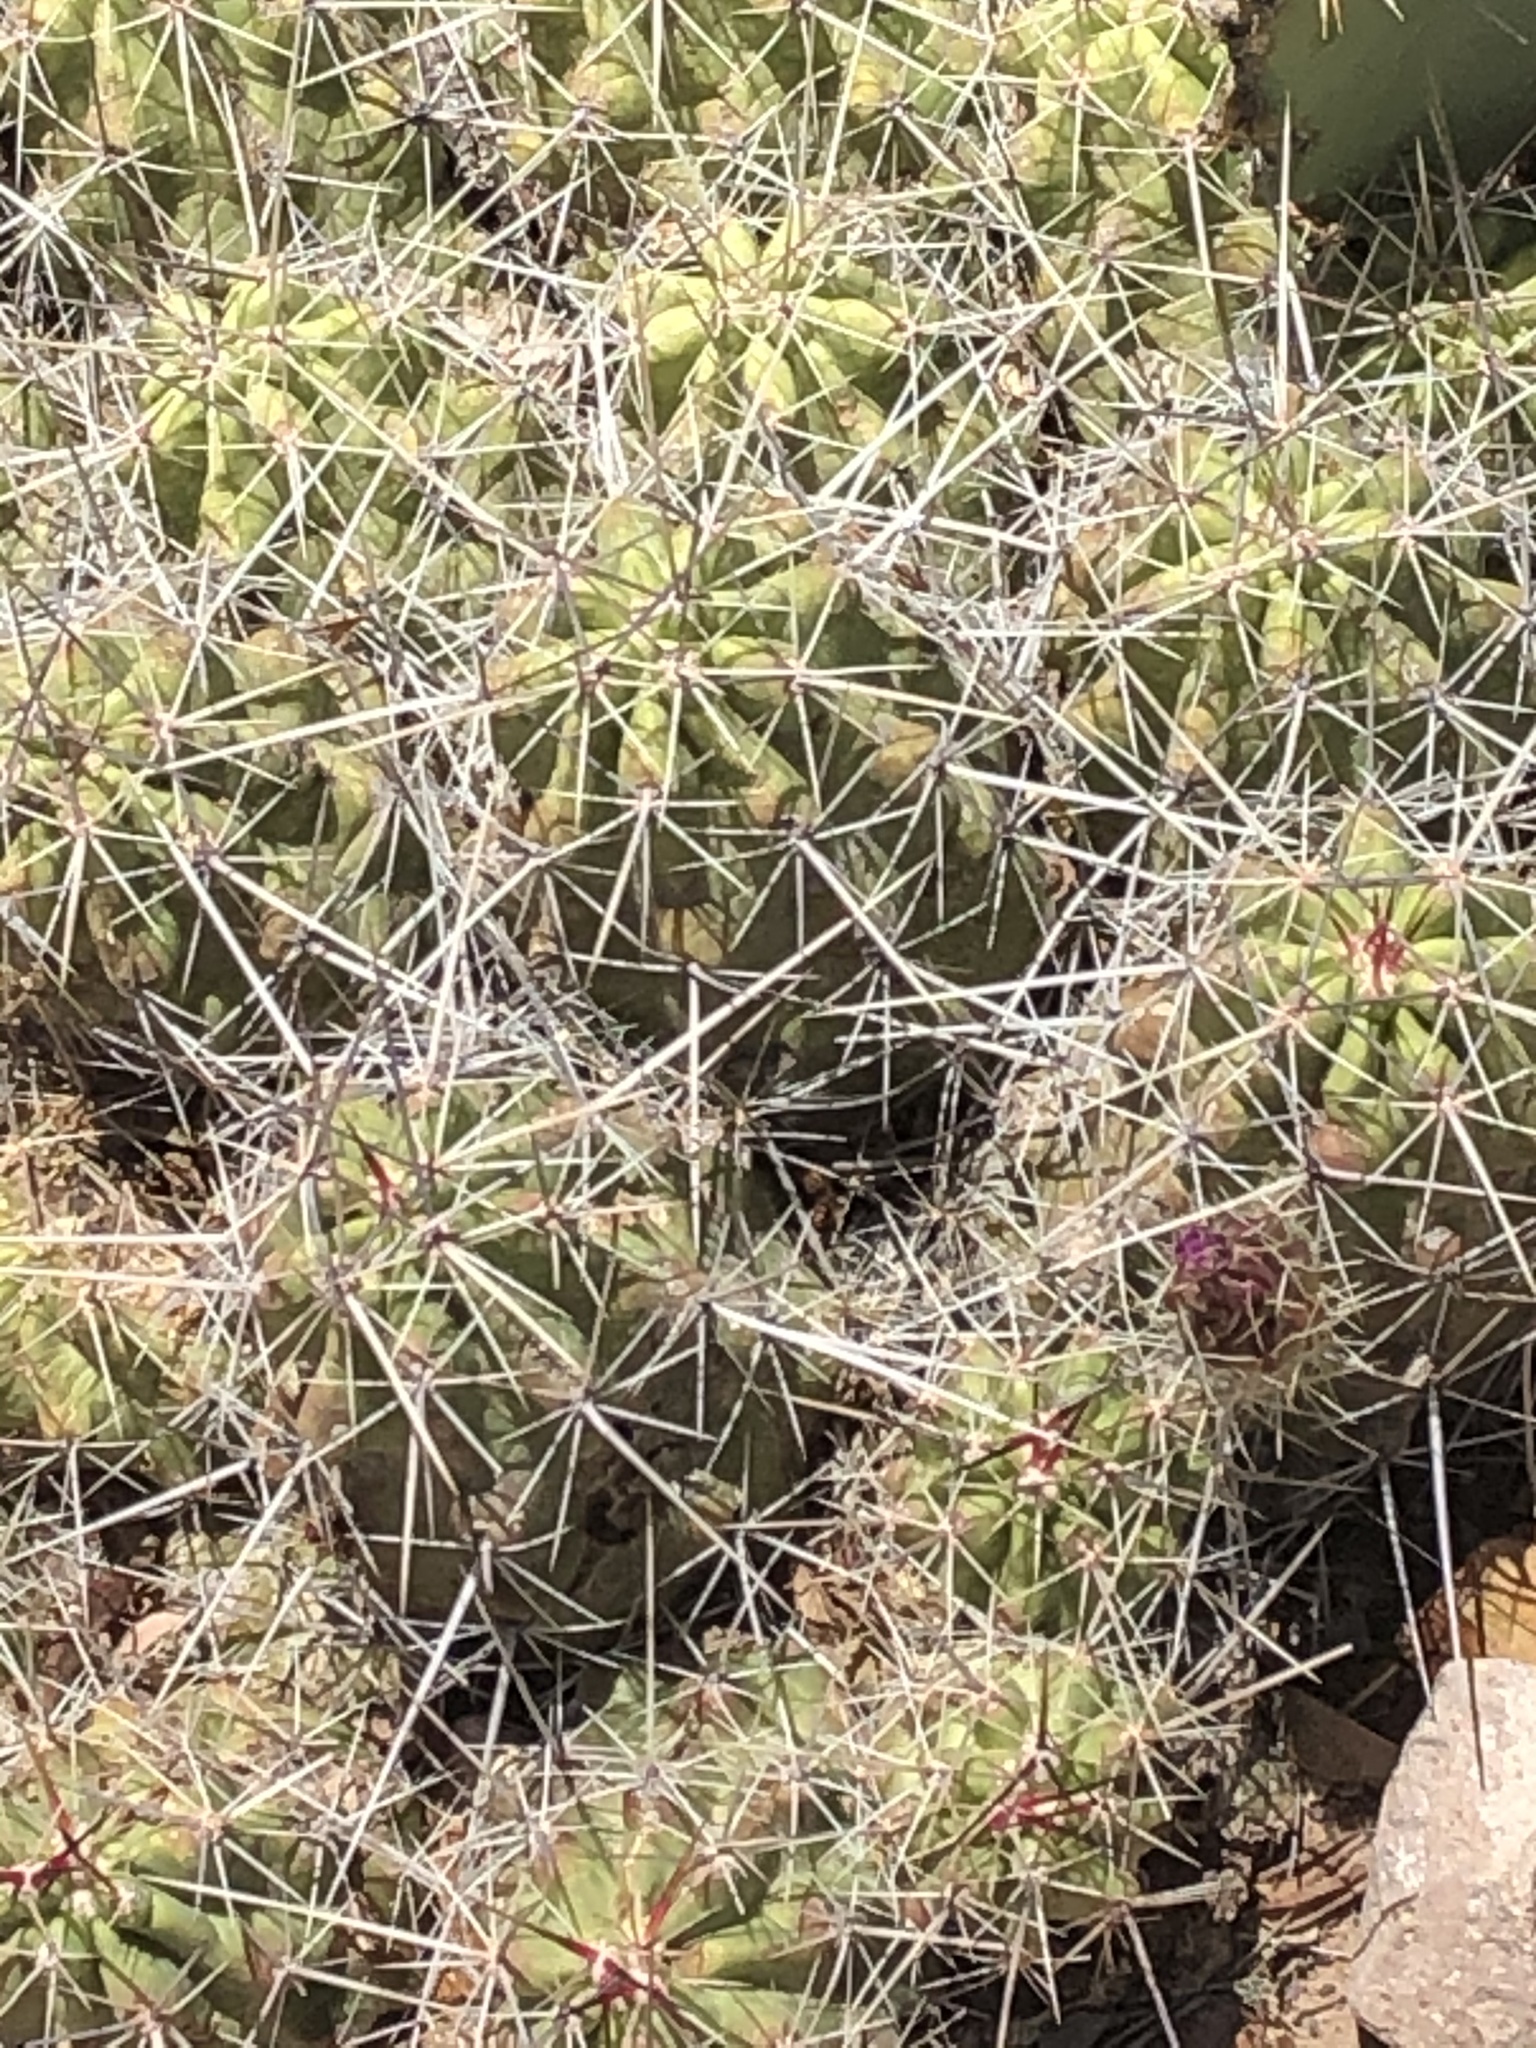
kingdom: Plantae
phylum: Tracheophyta
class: Magnoliopsida
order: Caryophyllales
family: Cactaceae
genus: Echinocereus
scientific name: Echinocereus enneacanthus
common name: Pitaya
